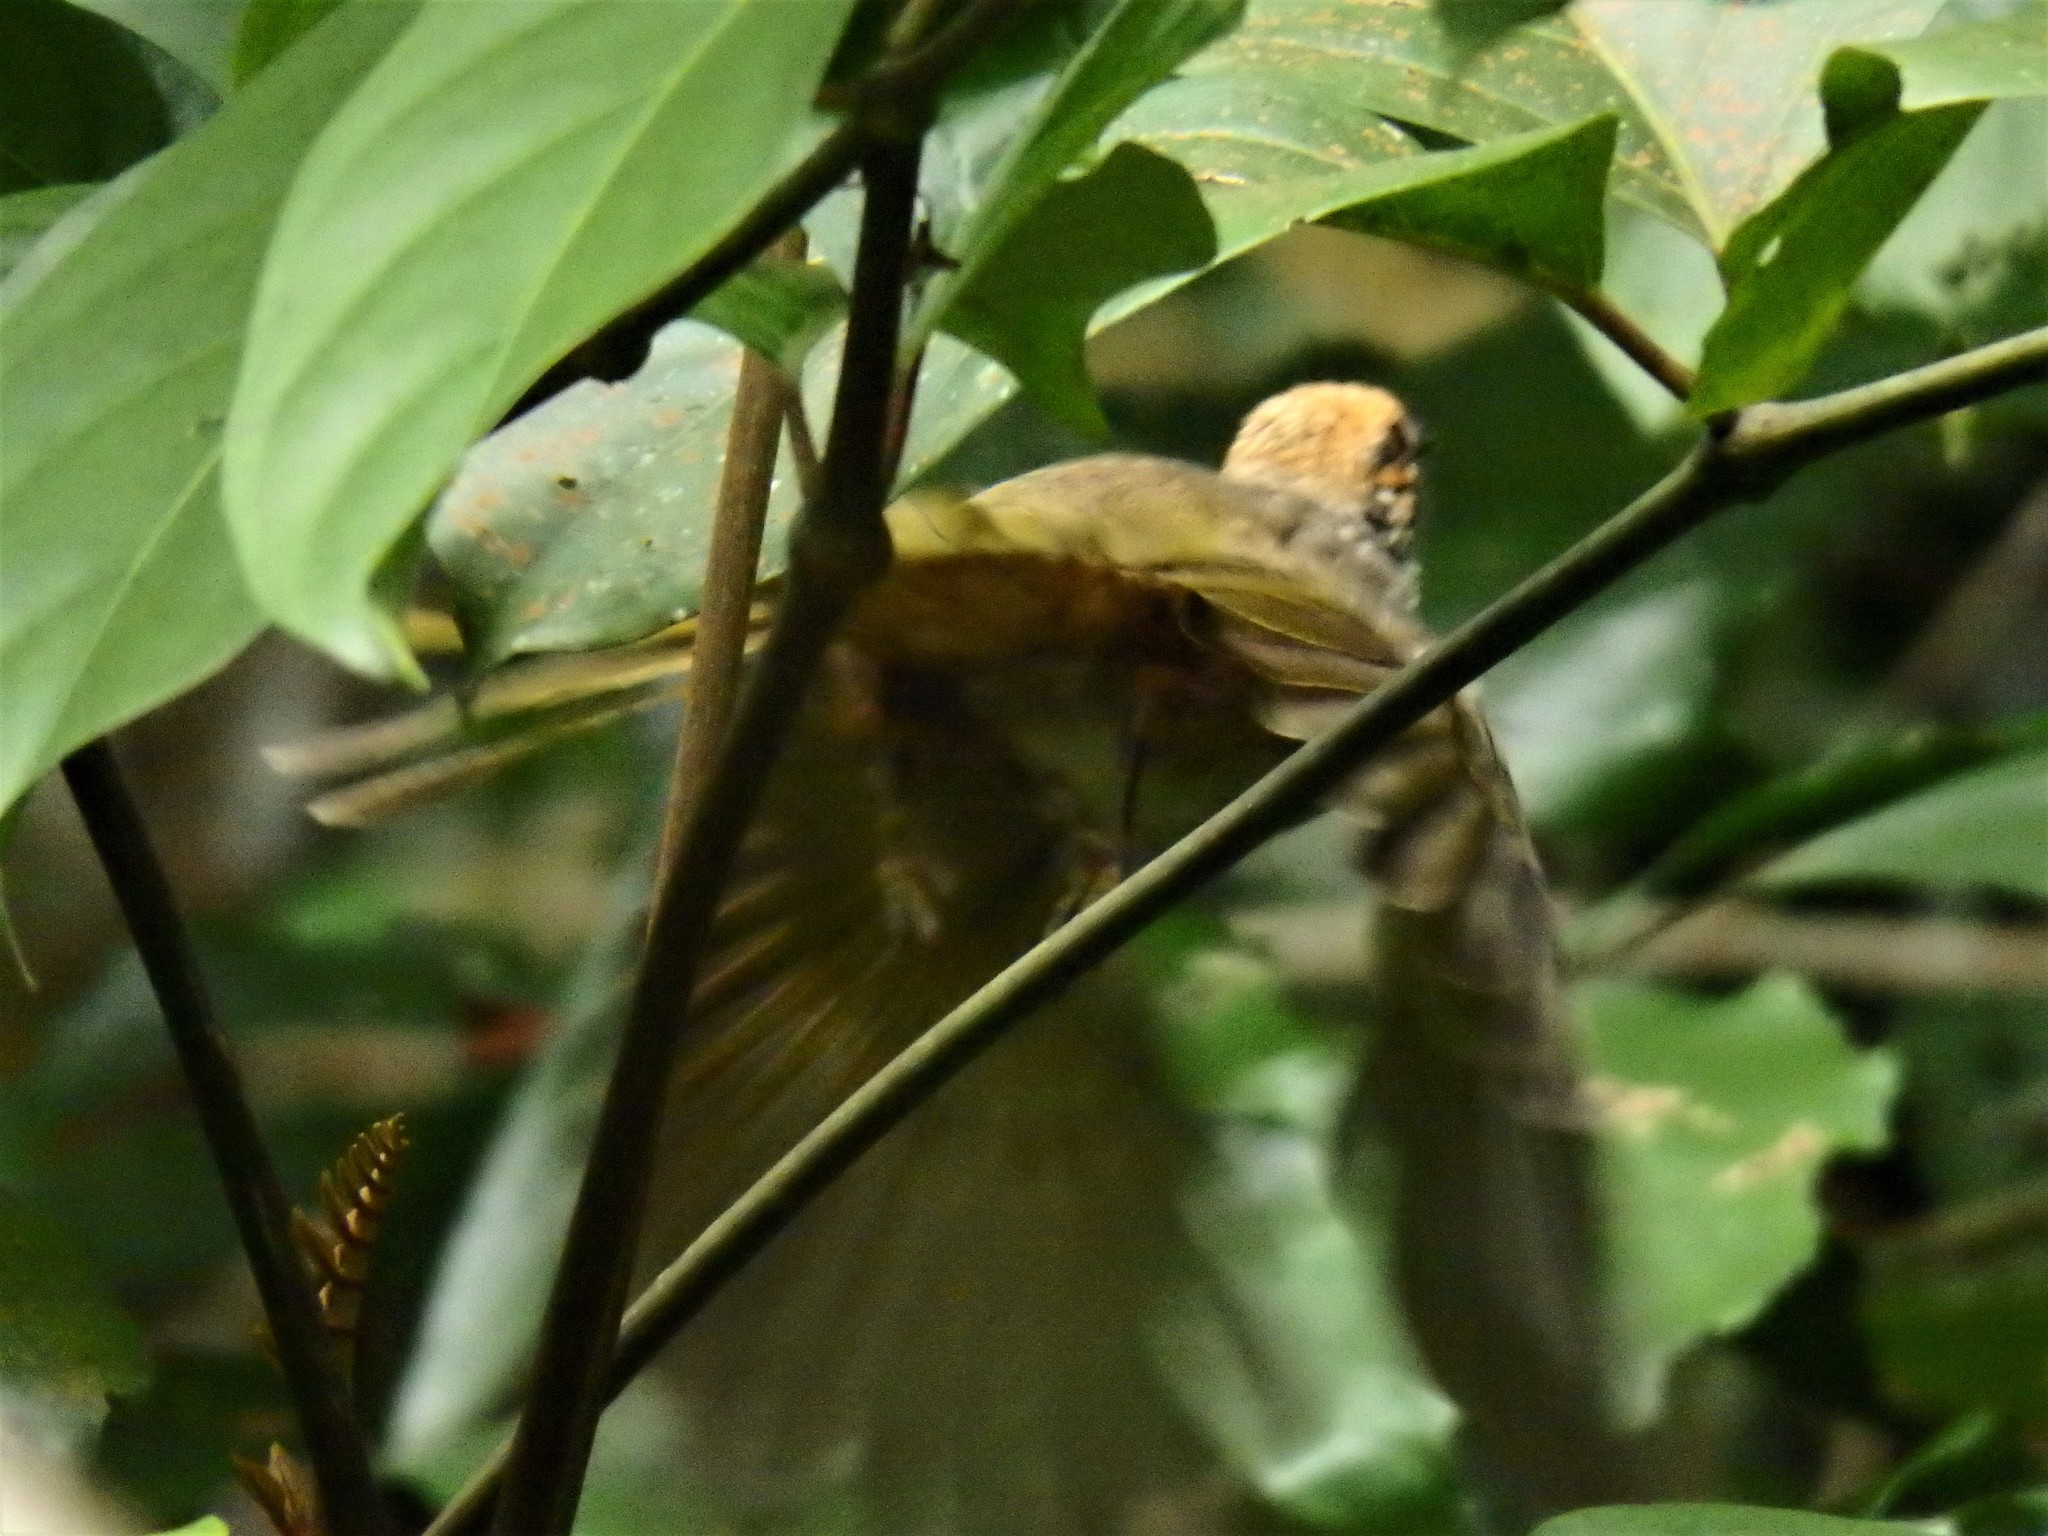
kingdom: Animalia
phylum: Chordata
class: Aves
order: Passeriformes
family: Pycnonotidae
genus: Pycnonotus
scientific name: Pycnonotus zeylanicus
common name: Straw-headed bulbul
